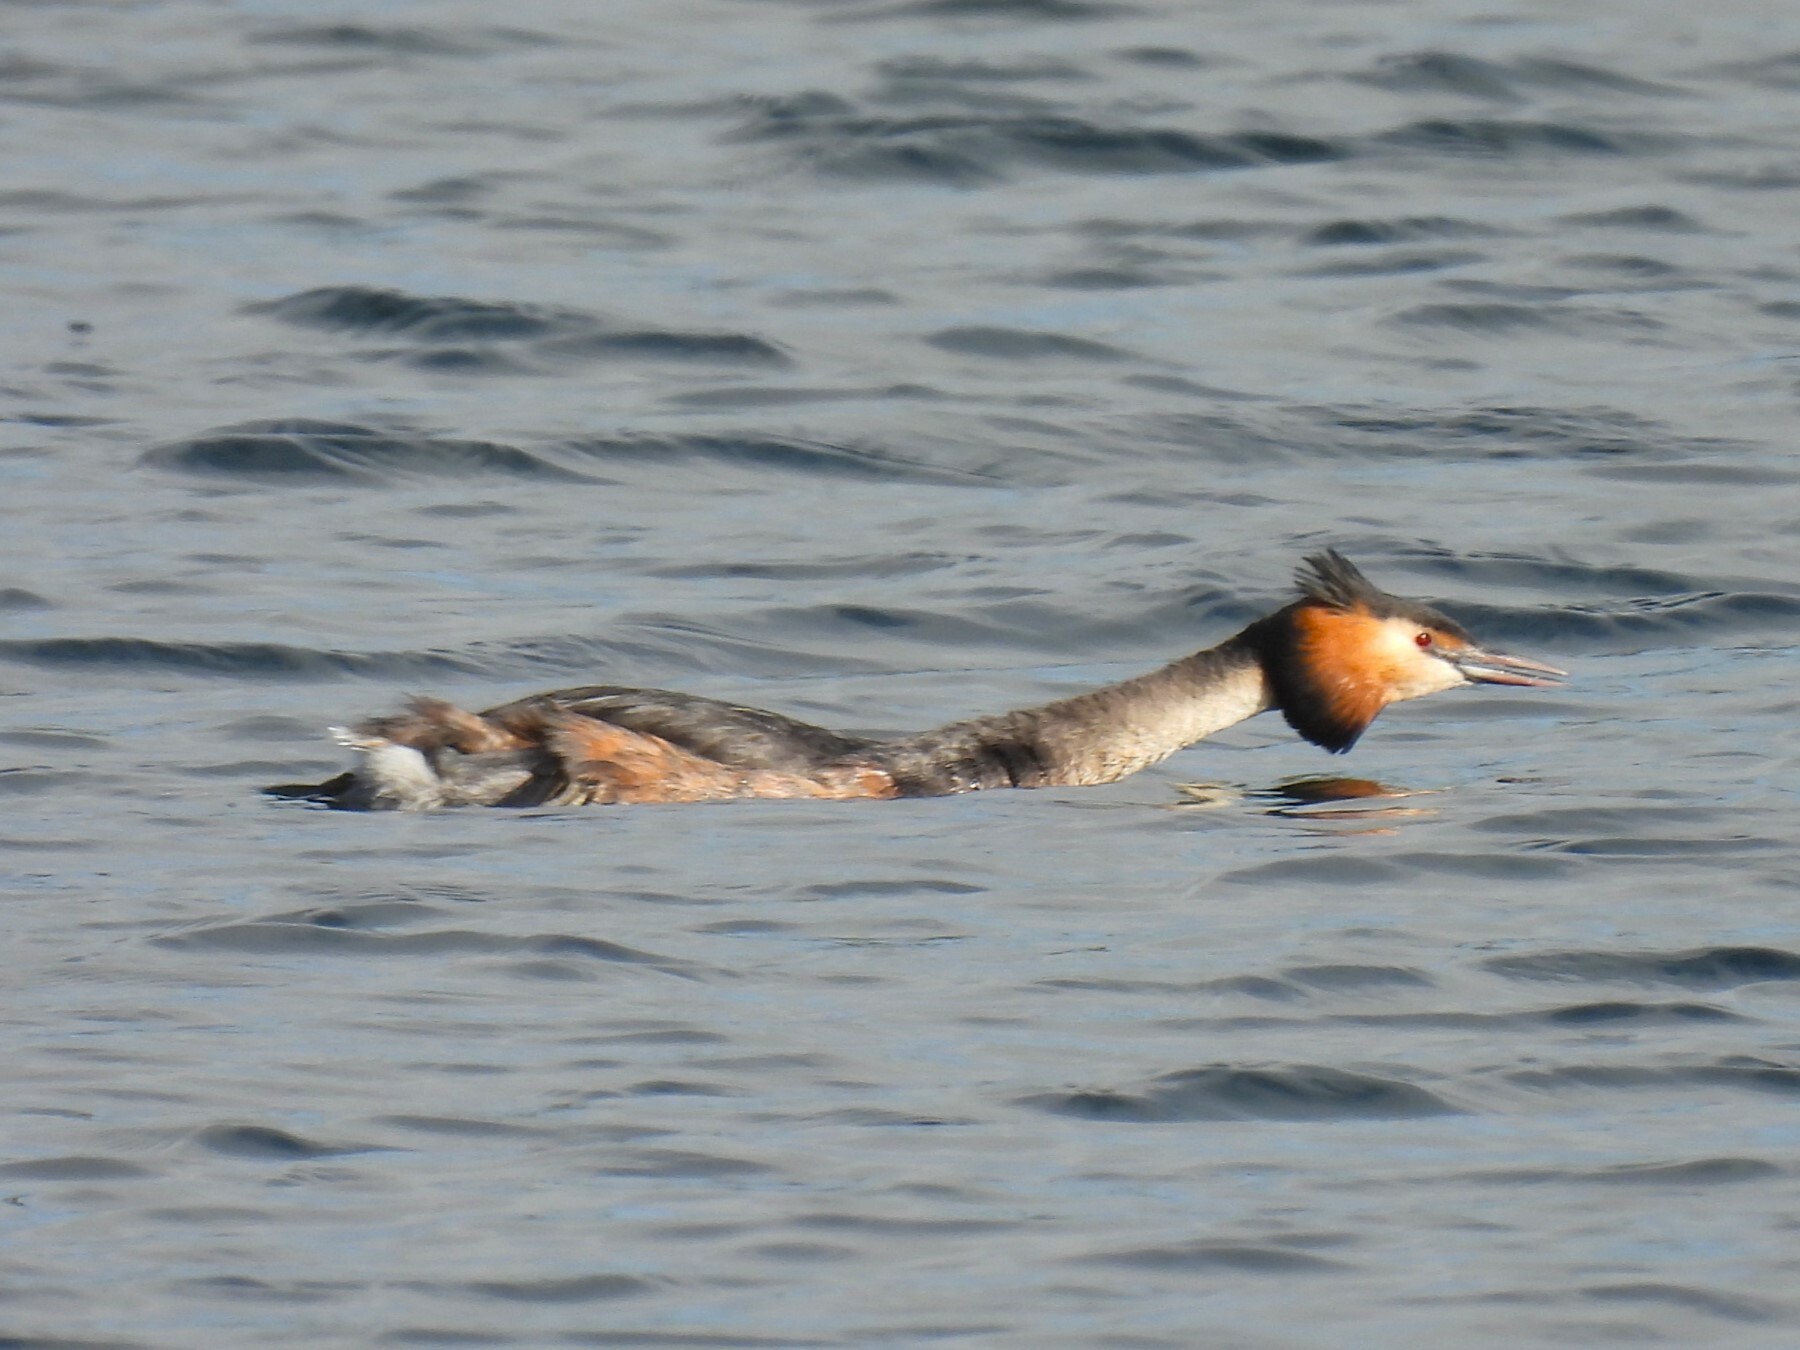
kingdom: Animalia
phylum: Chordata
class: Aves
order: Podicipediformes
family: Podicipedidae
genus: Podiceps
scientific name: Podiceps cristatus
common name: Great crested grebe
